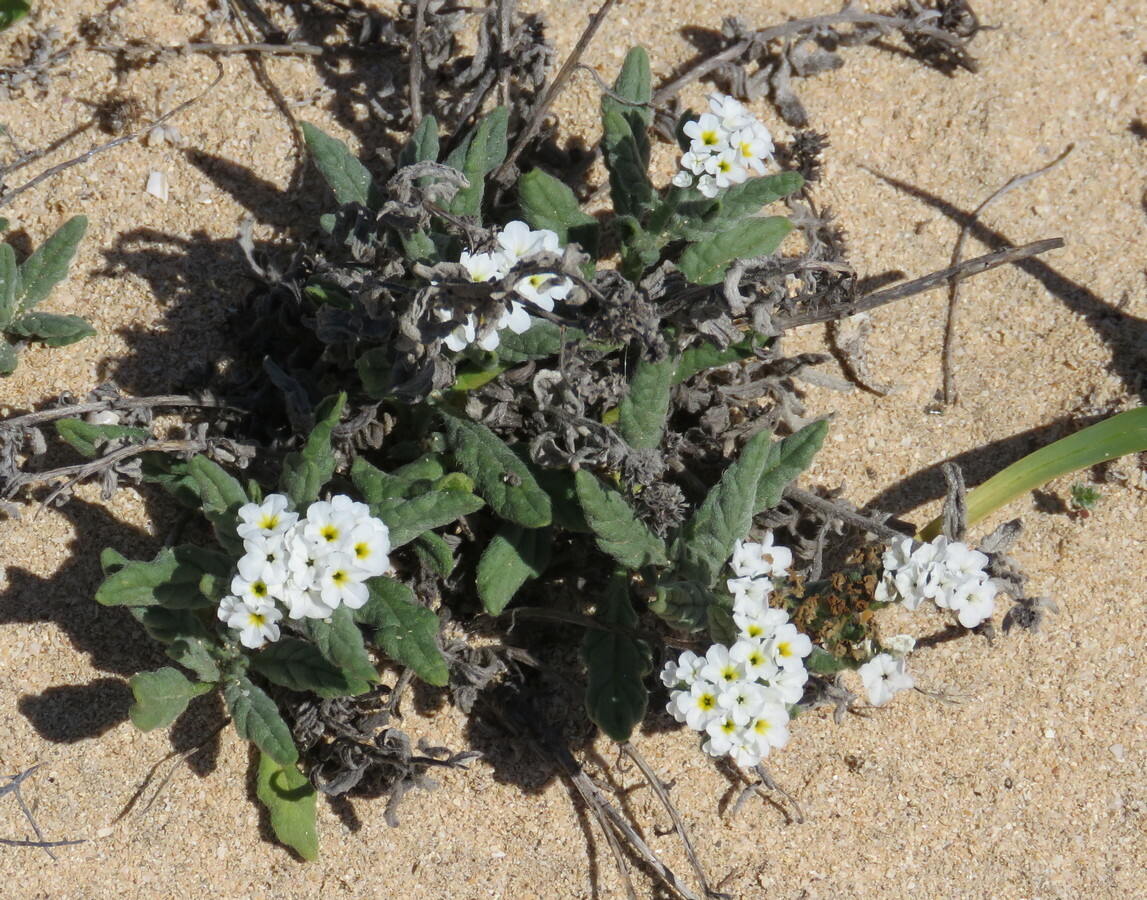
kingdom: Plantae
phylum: Tracheophyta
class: Magnoliopsida
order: Boraginales
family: Heliotropiaceae
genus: Heliotropium
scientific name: Heliotropium ramosissimum
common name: Wavy heliotrope
